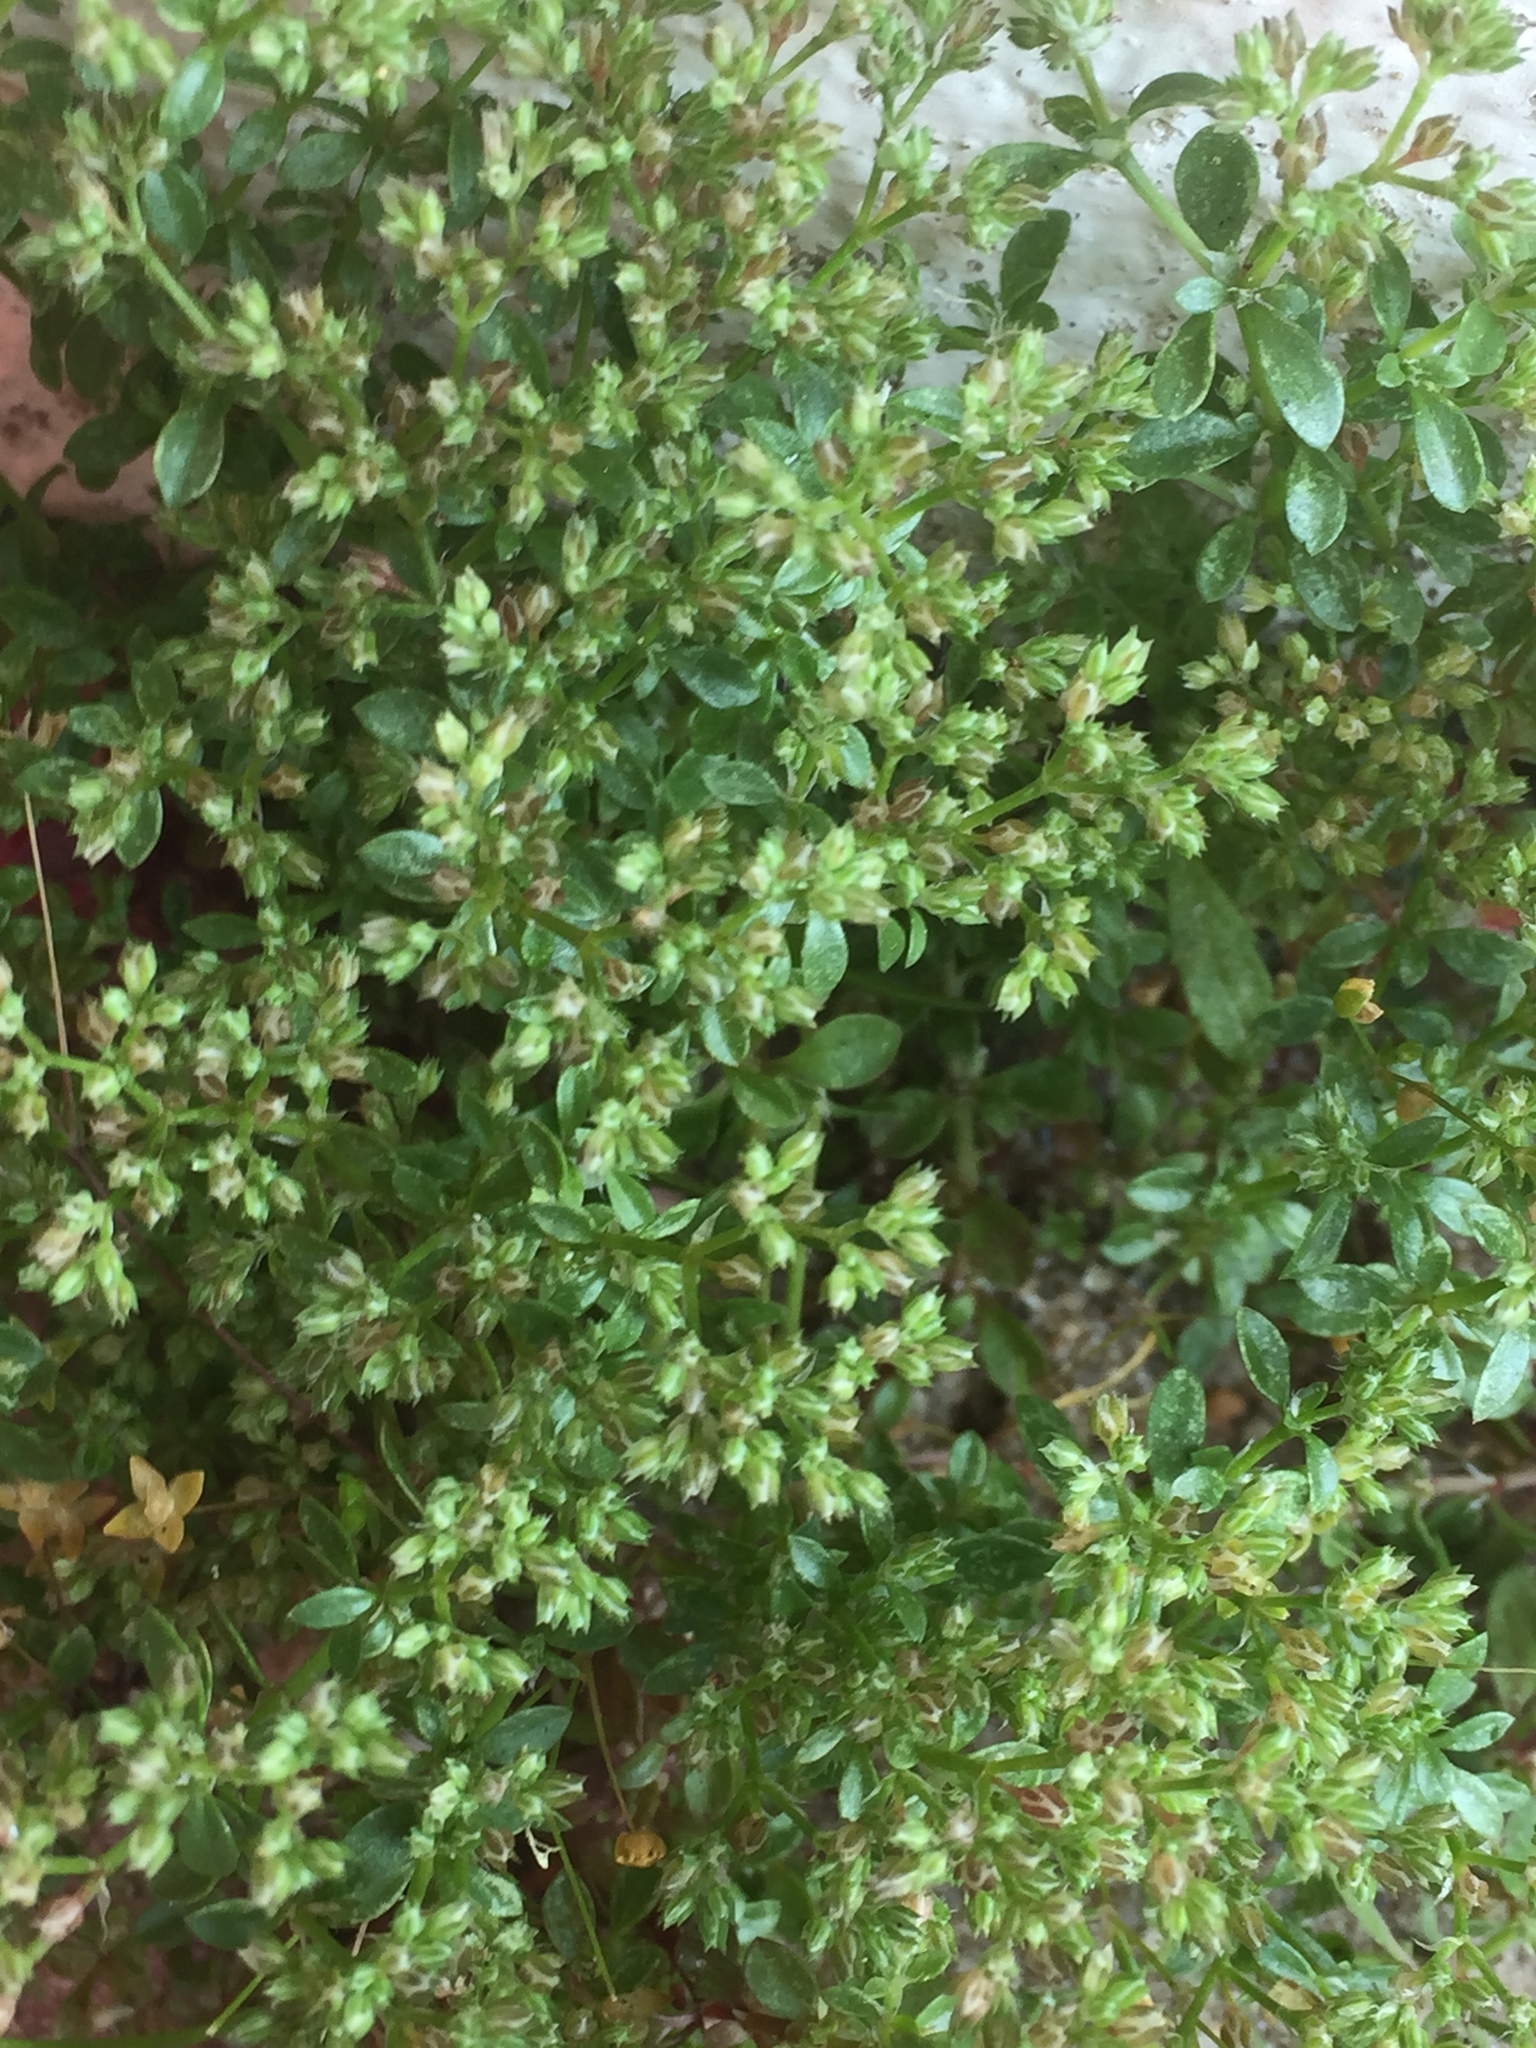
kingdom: Plantae
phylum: Tracheophyta
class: Magnoliopsida
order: Caryophyllales
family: Caryophyllaceae
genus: Polycarpon
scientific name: Polycarpon tetraphyllum
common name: Four-leaved all-seed
